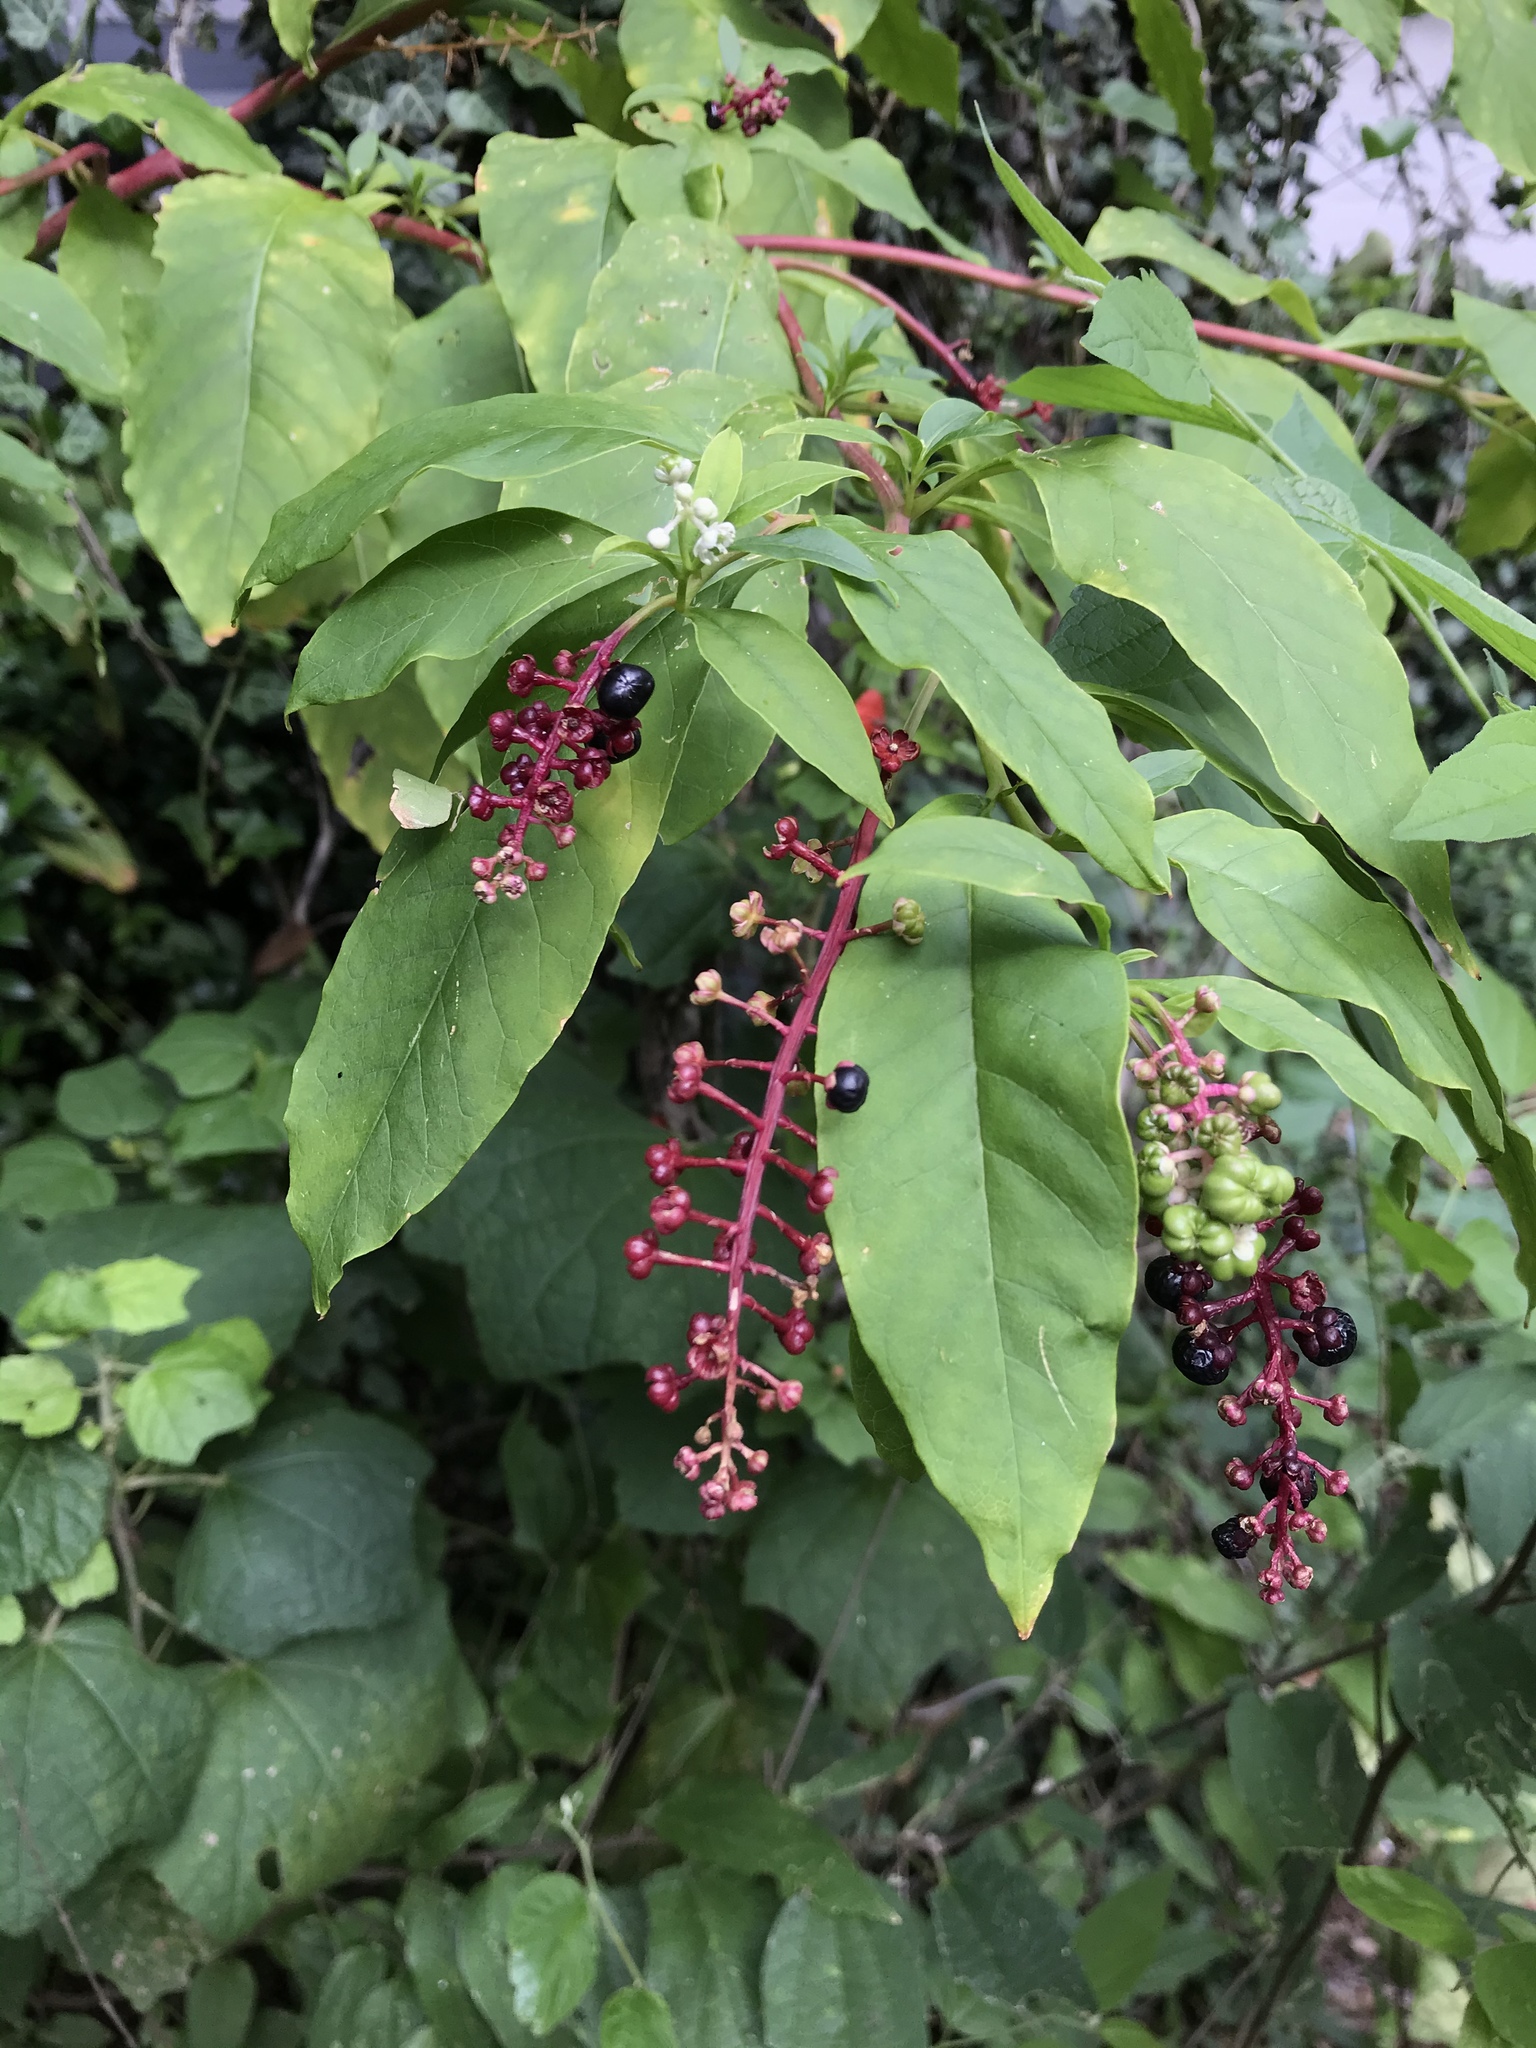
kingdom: Plantae
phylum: Tracheophyta
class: Magnoliopsida
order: Caryophyllales
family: Phytolaccaceae
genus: Phytolacca
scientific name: Phytolacca americana
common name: American pokeweed
